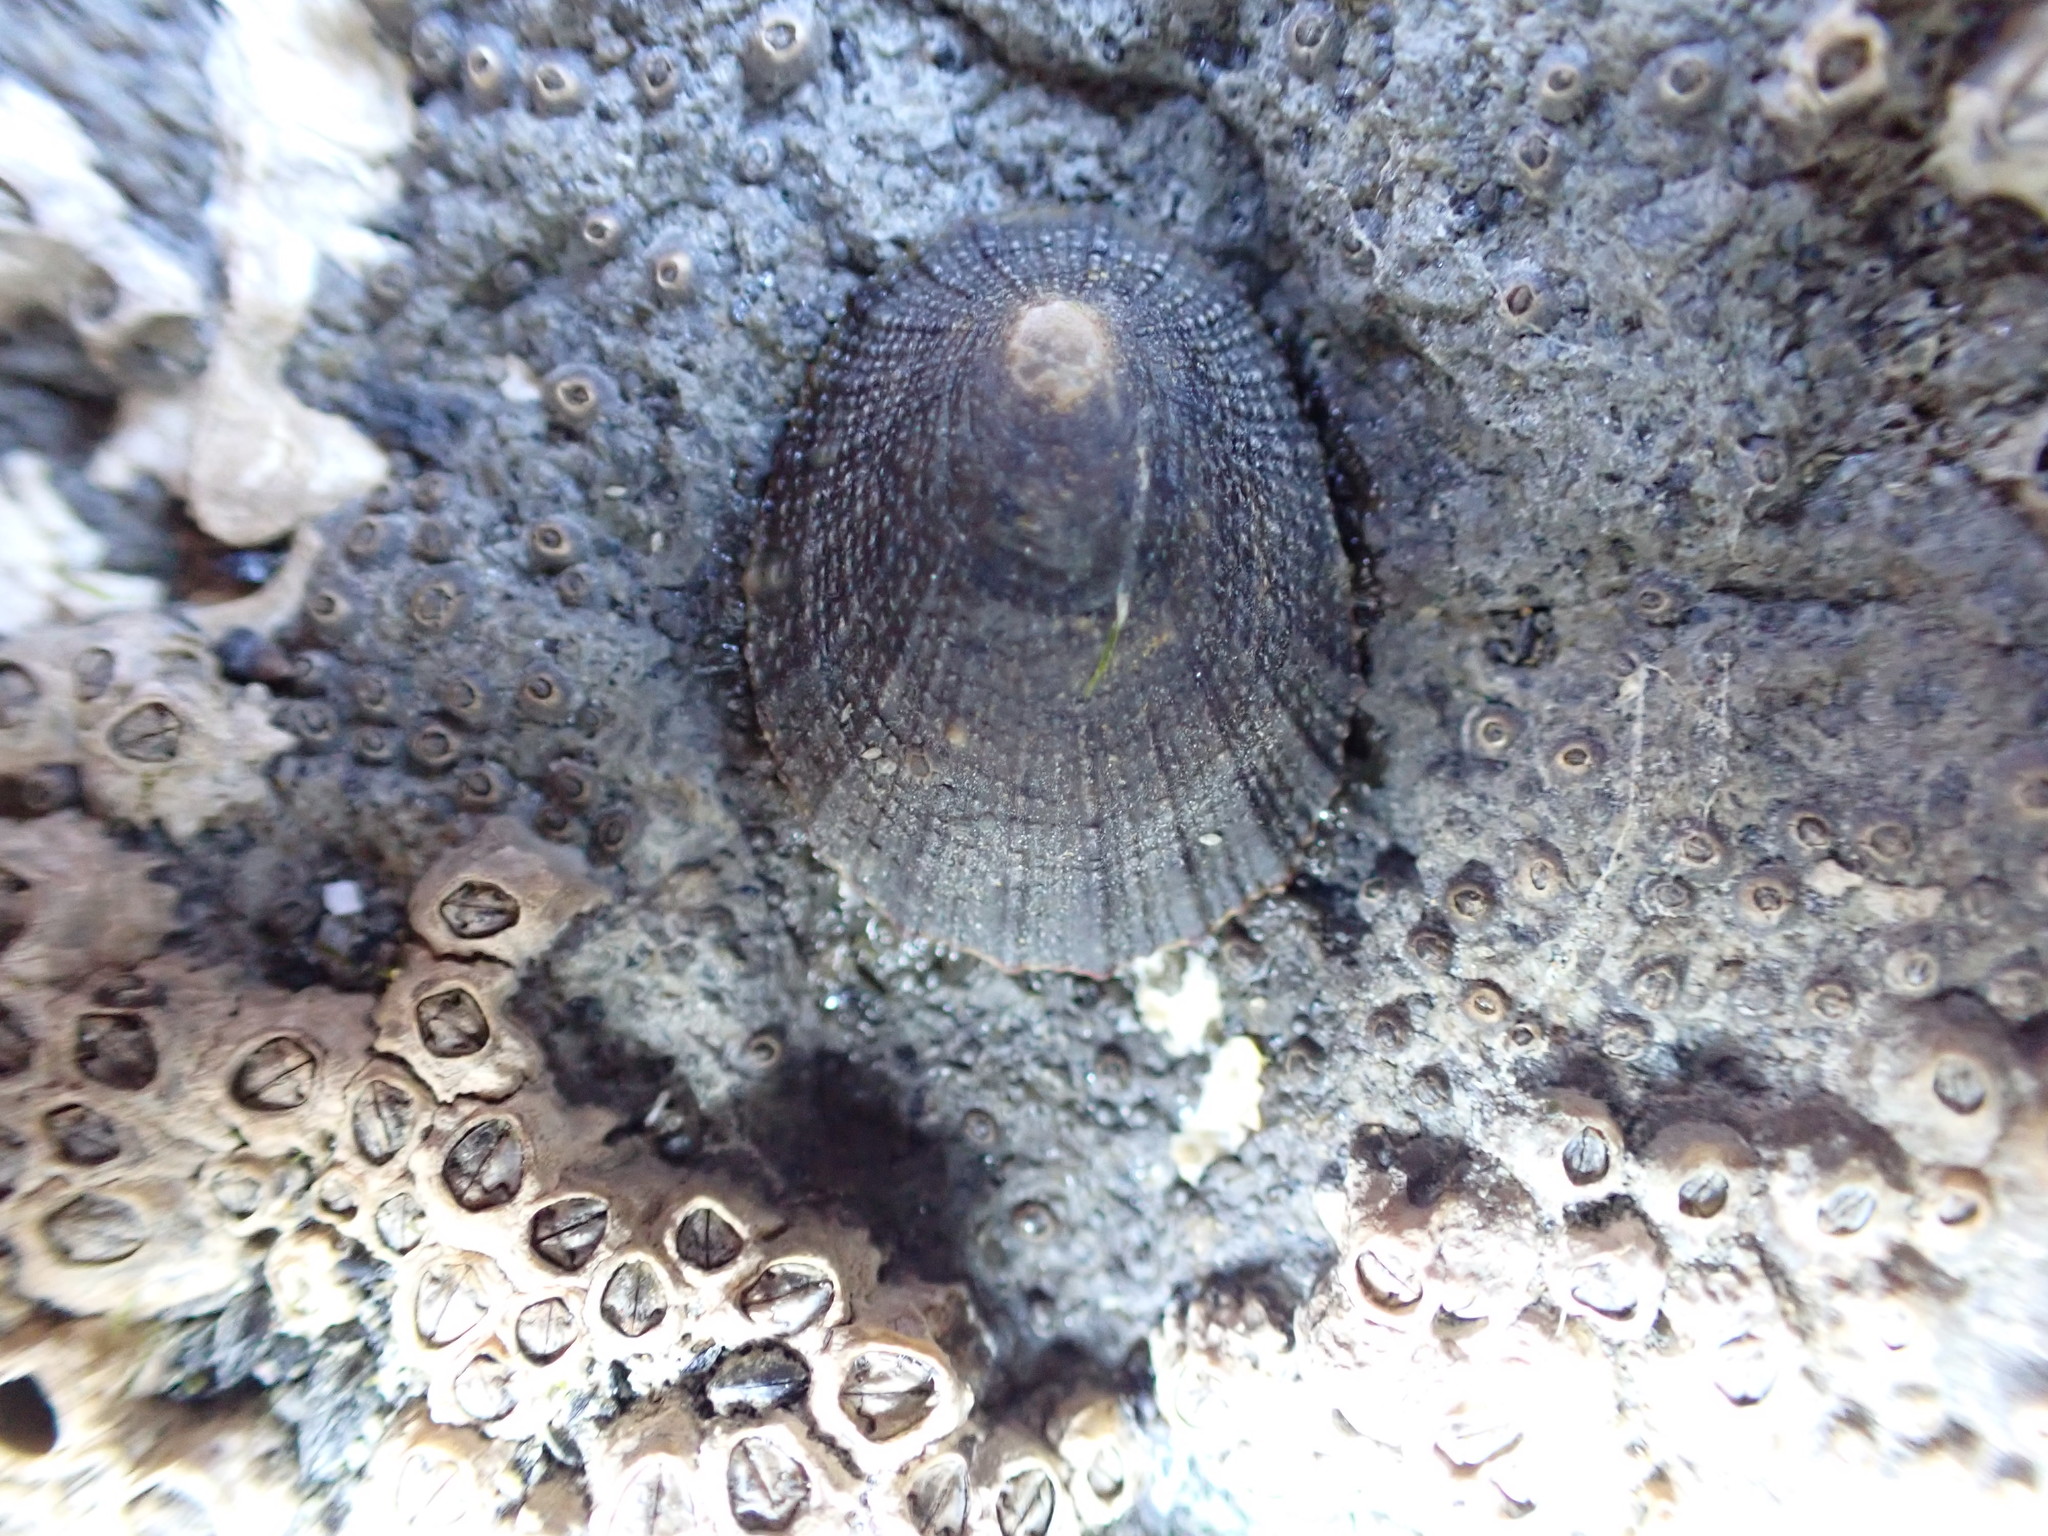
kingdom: Animalia
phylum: Mollusca
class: Gastropoda
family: Nacellidae
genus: Cellana
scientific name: Cellana radians
